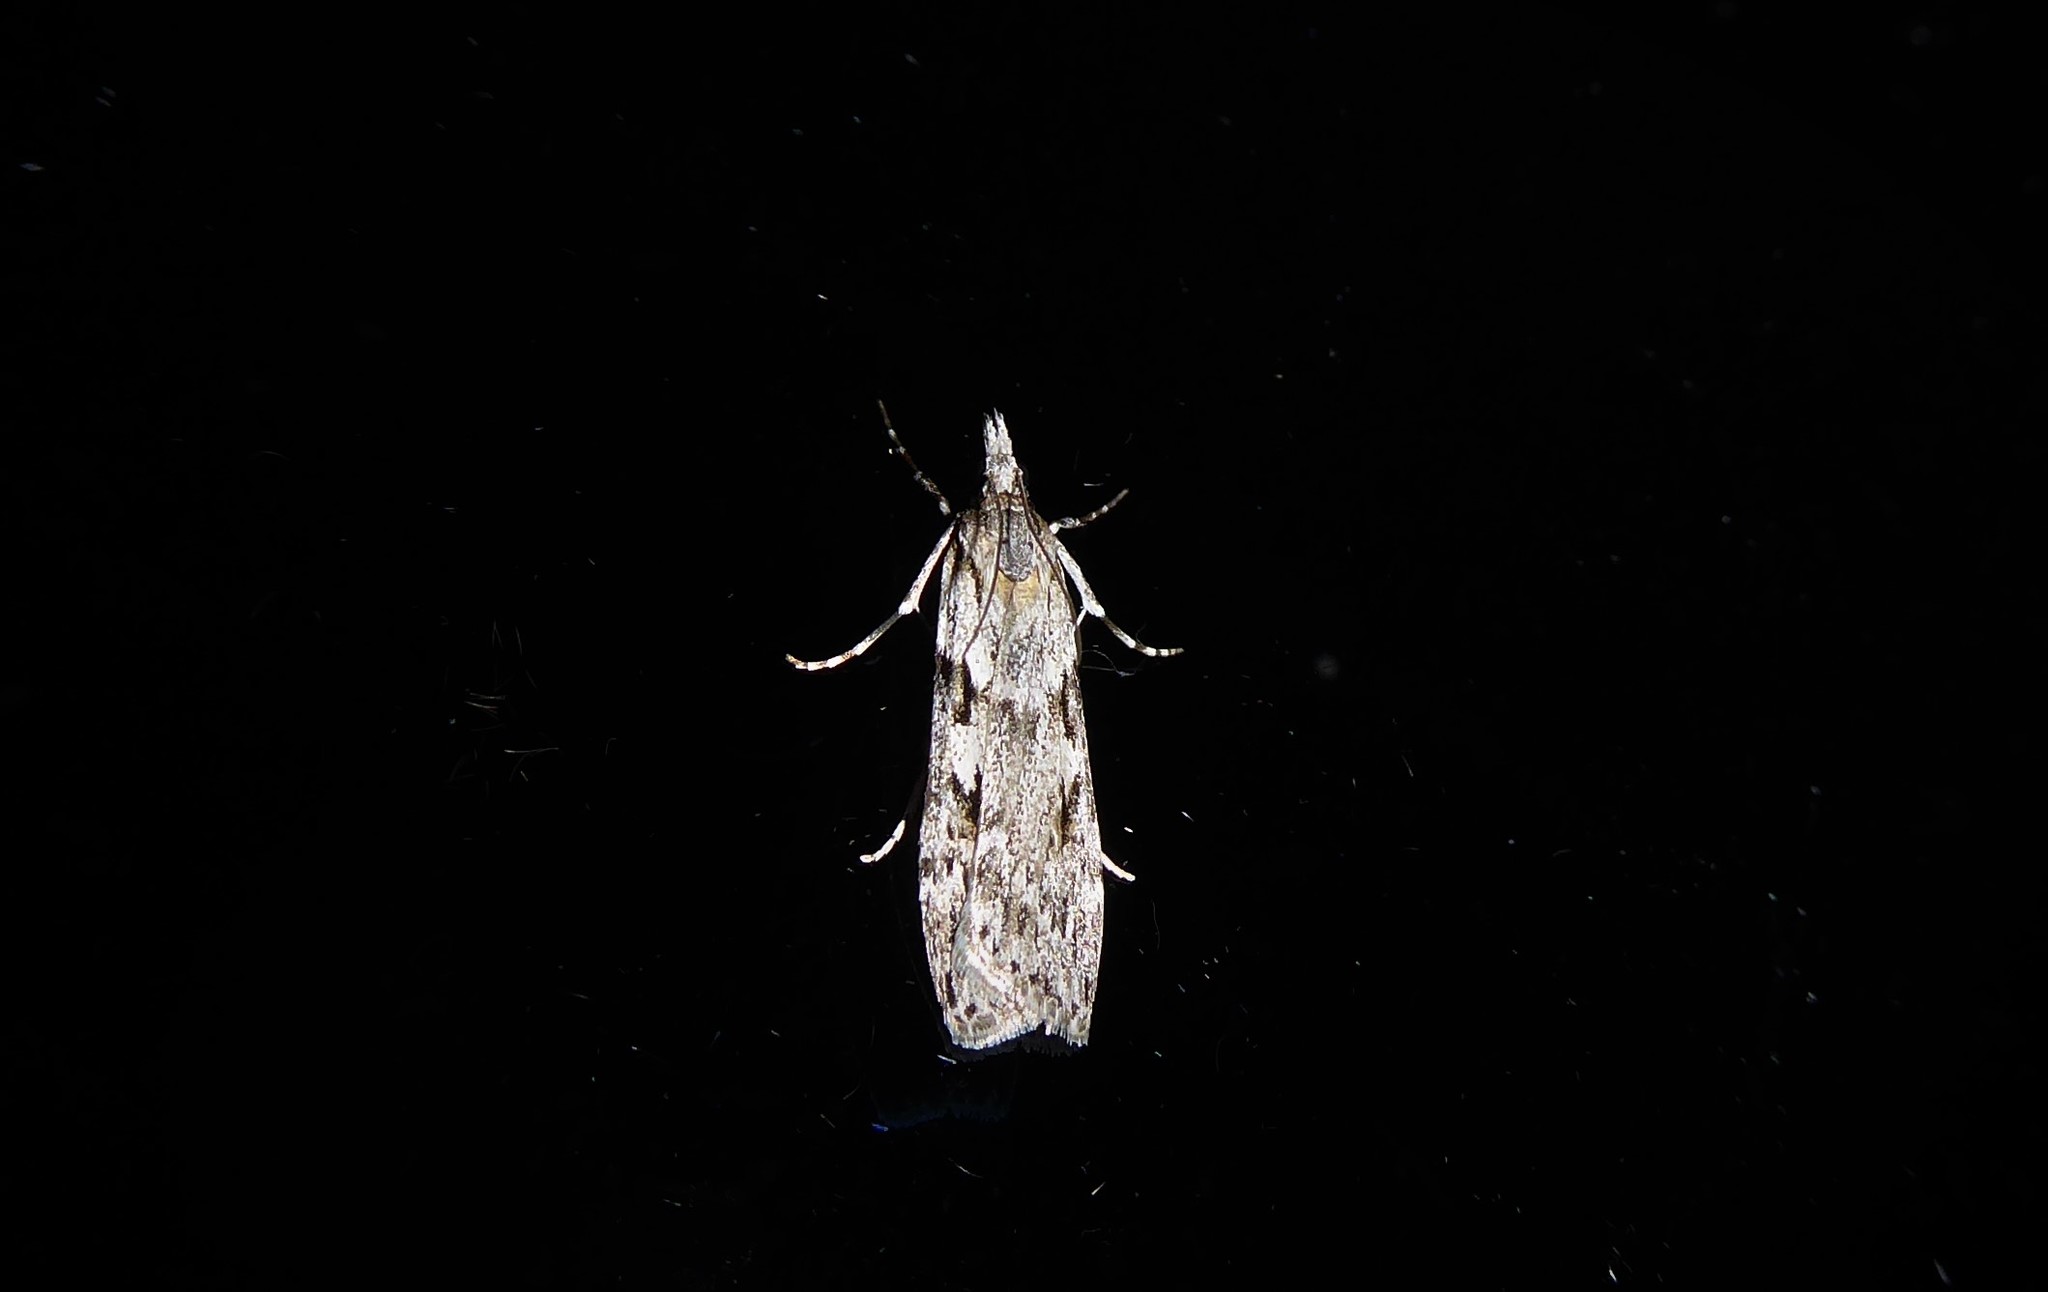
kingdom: Animalia
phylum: Arthropoda
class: Insecta
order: Lepidoptera
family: Crambidae
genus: Scoparia
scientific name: Scoparia halopis
